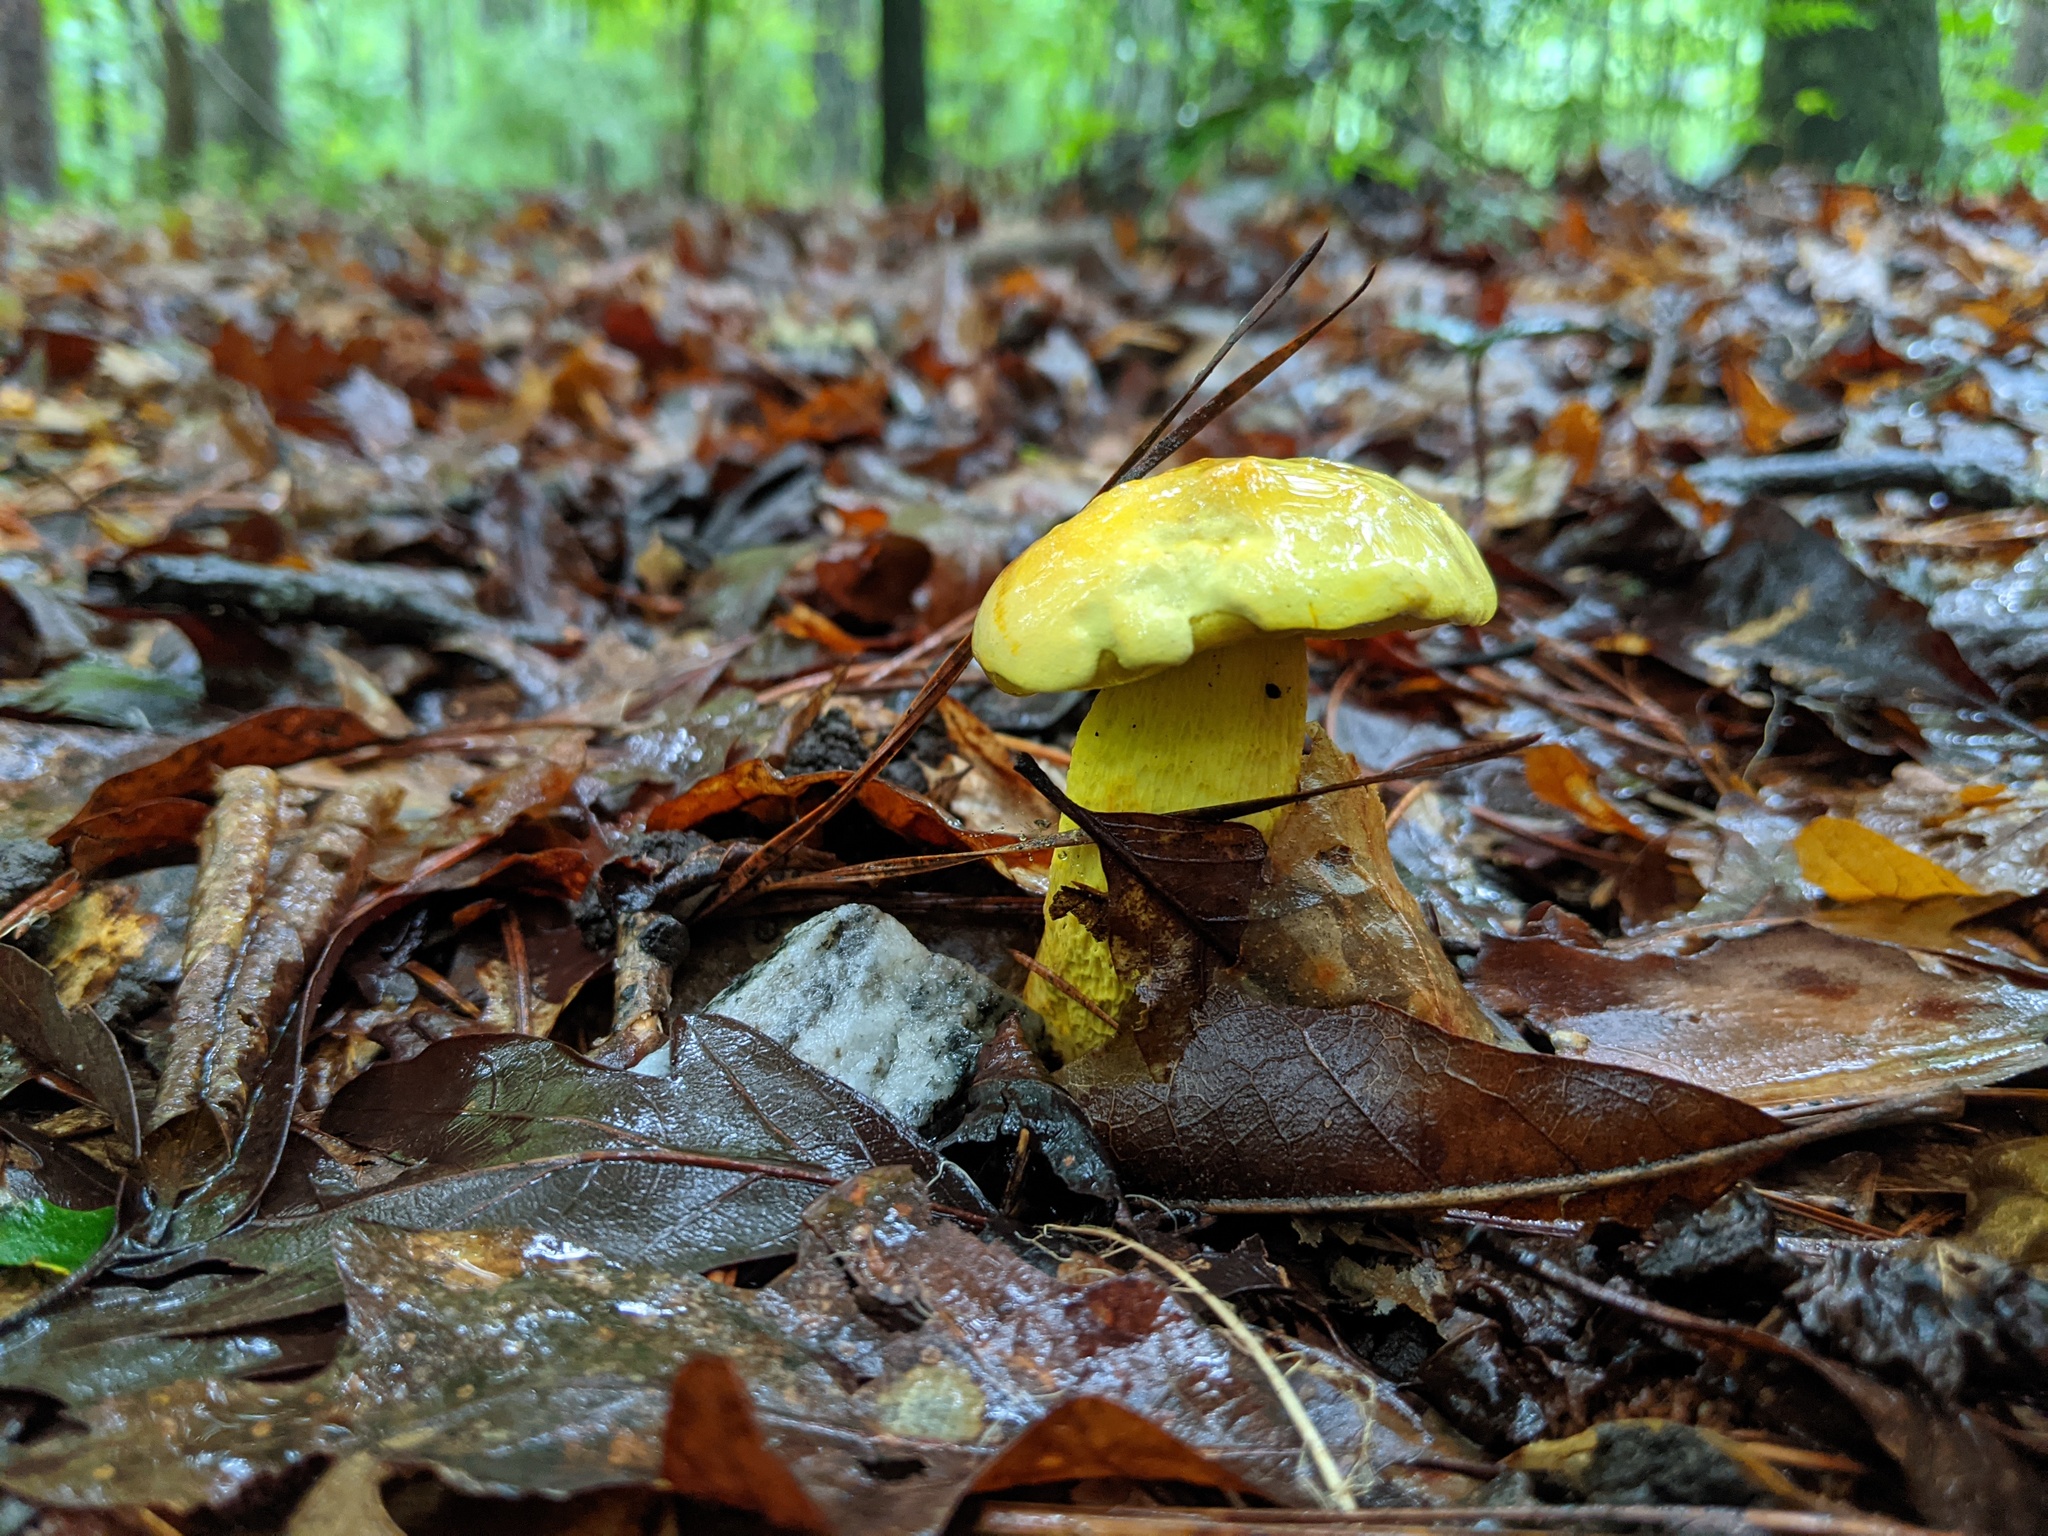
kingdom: Fungi
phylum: Basidiomycota
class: Agaricomycetes
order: Boletales
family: Boletaceae
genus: Retiboletus
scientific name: Retiboletus ornatipes
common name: Ornate-stalked bolete
